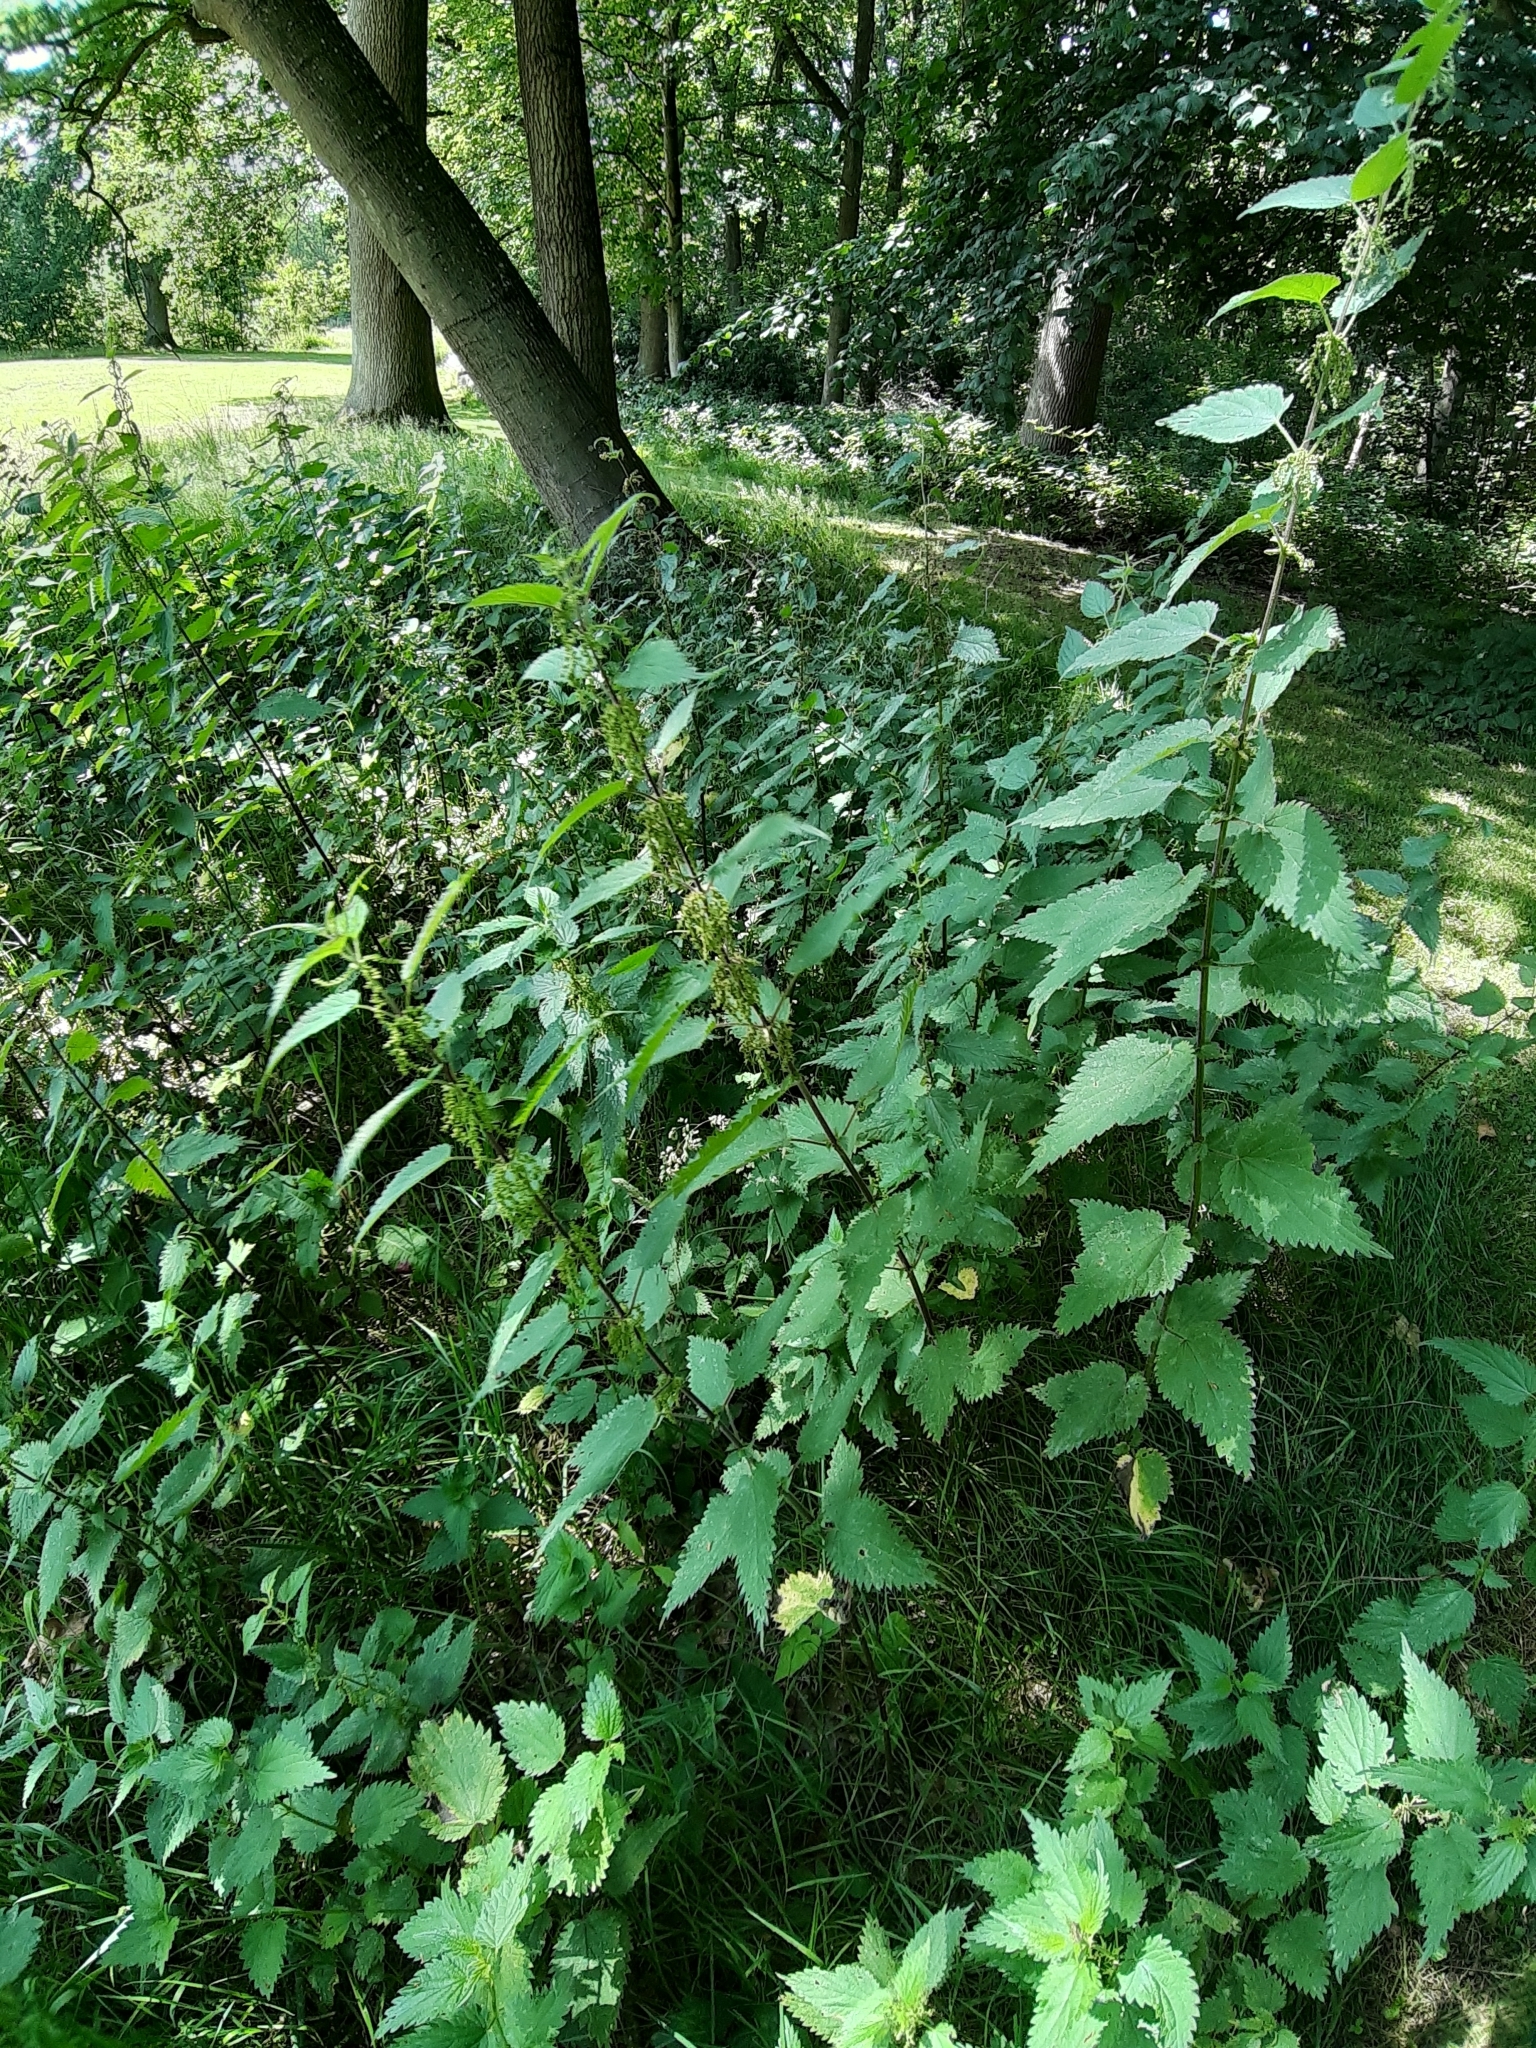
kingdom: Plantae
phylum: Tracheophyta
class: Magnoliopsida
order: Rosales
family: Urticaceae
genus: Urtica
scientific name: Urtica dioica
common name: Common nettle
